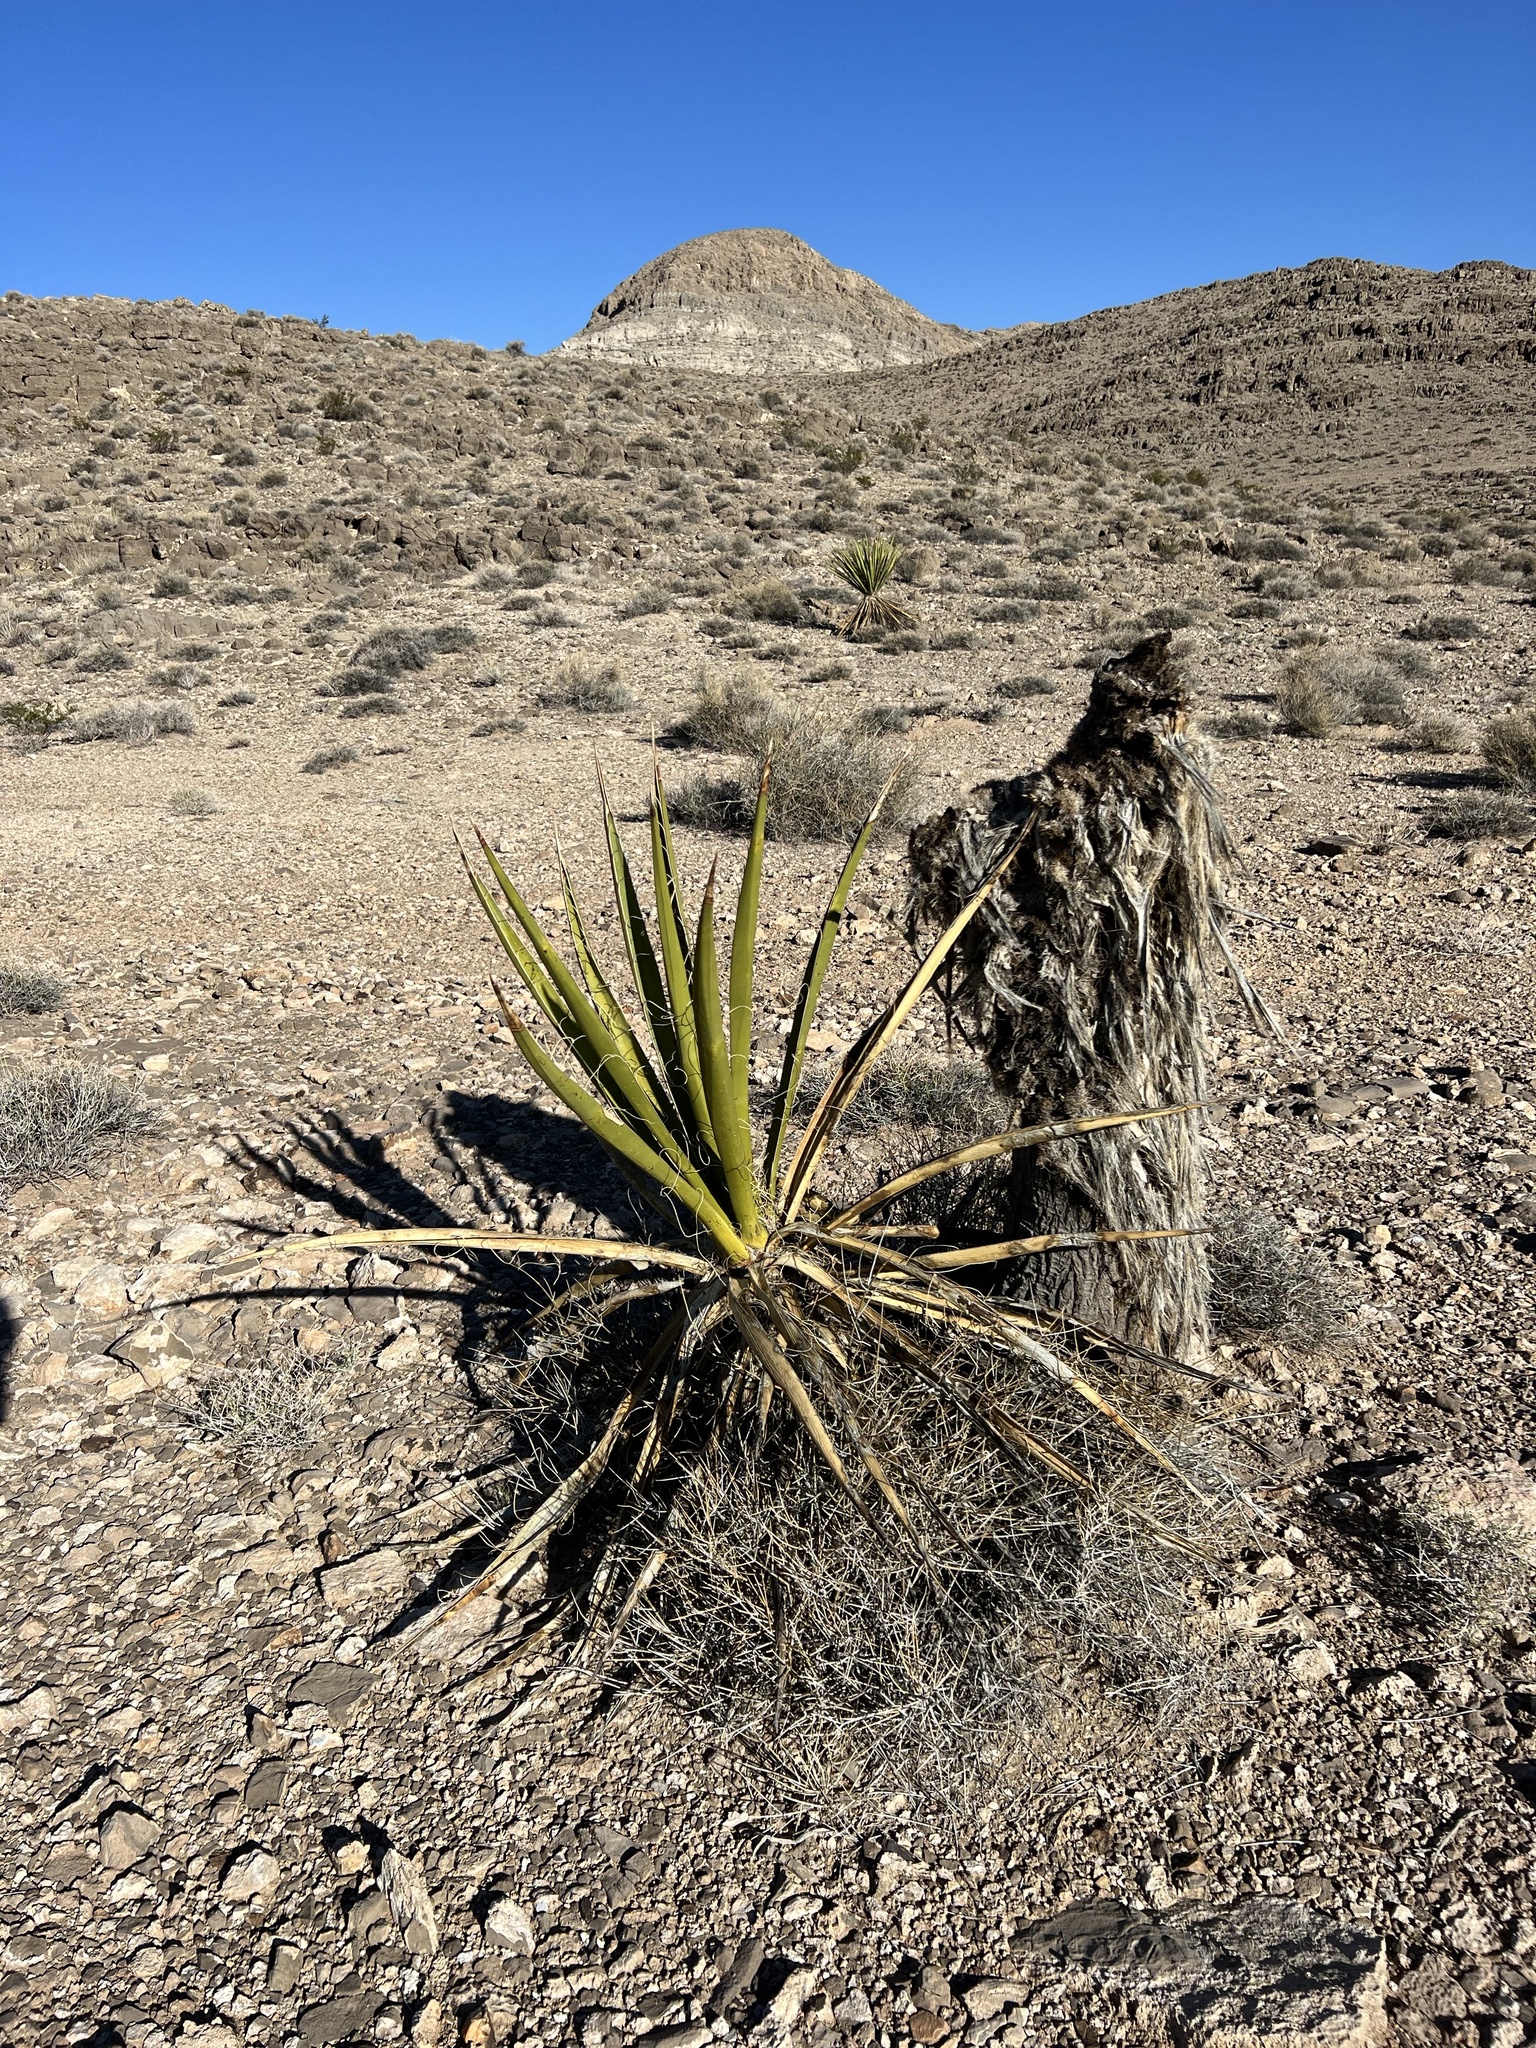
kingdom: Plantae
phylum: Tracheophyta
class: Liliopsida
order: Asparagales
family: Asparagaceae
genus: Yucca
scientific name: Yucca schidigera
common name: Mojave yucca
